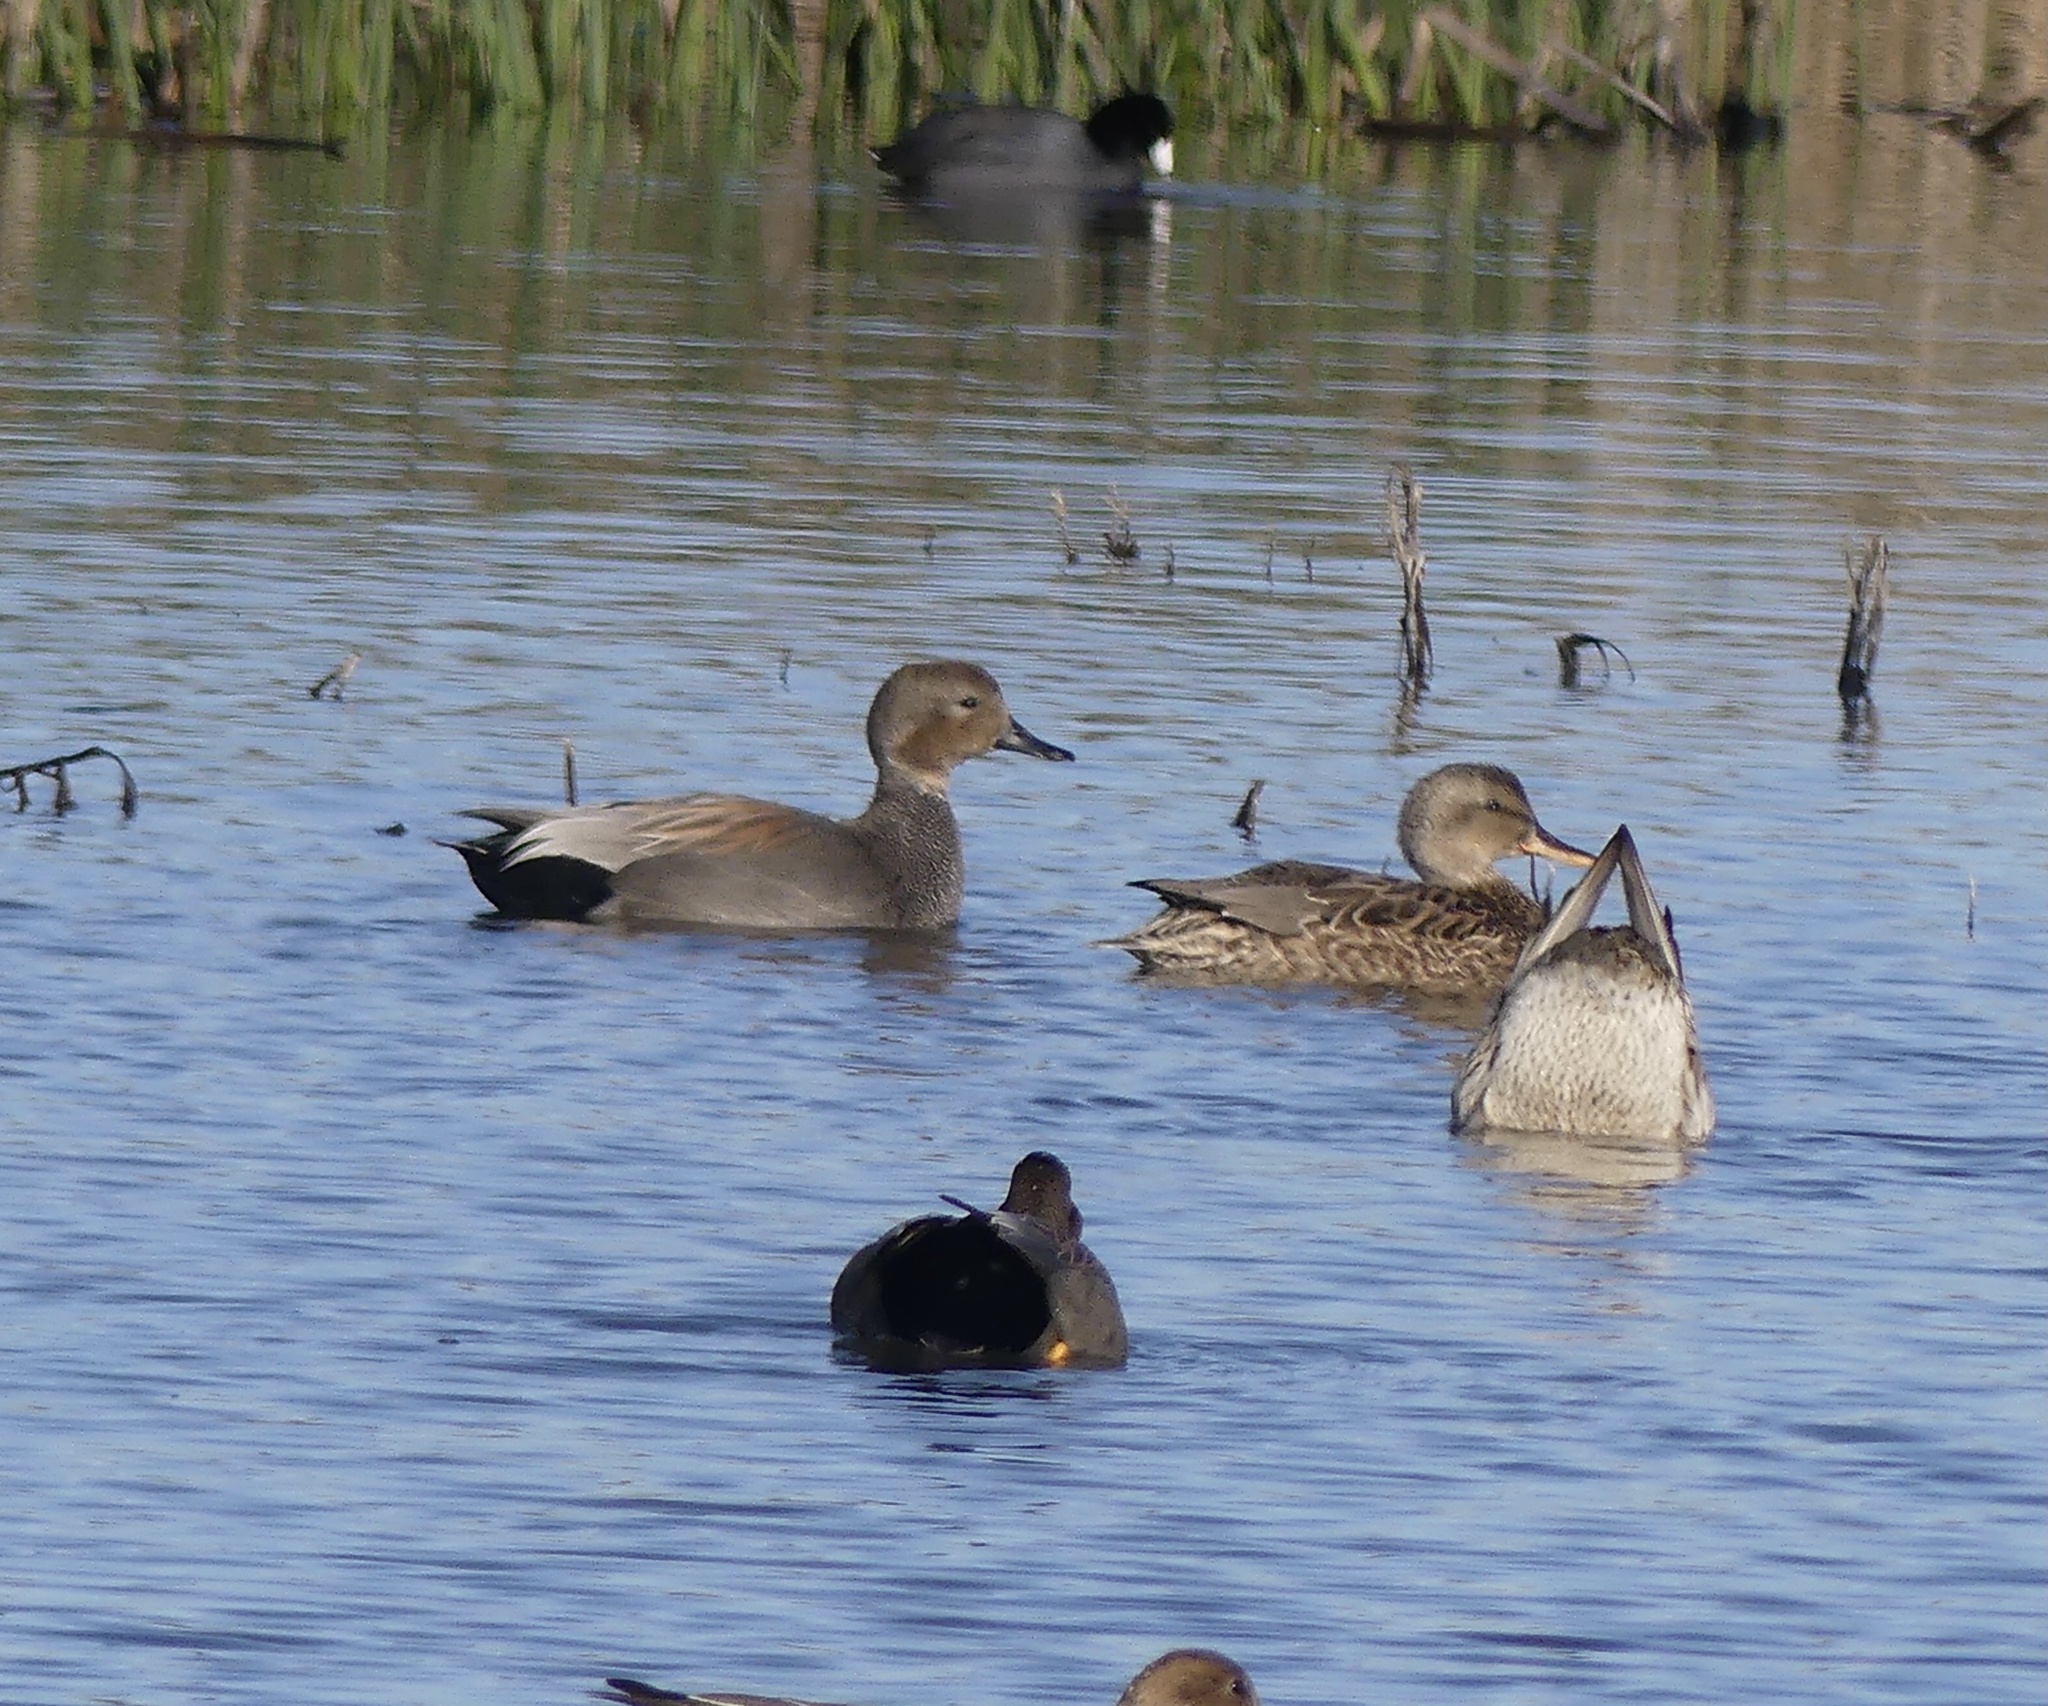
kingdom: Animalia
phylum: Chordata
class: Aves
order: Anseriformes
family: Anatidae
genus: Mareca
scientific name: Mareca strepera
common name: Gadwall
